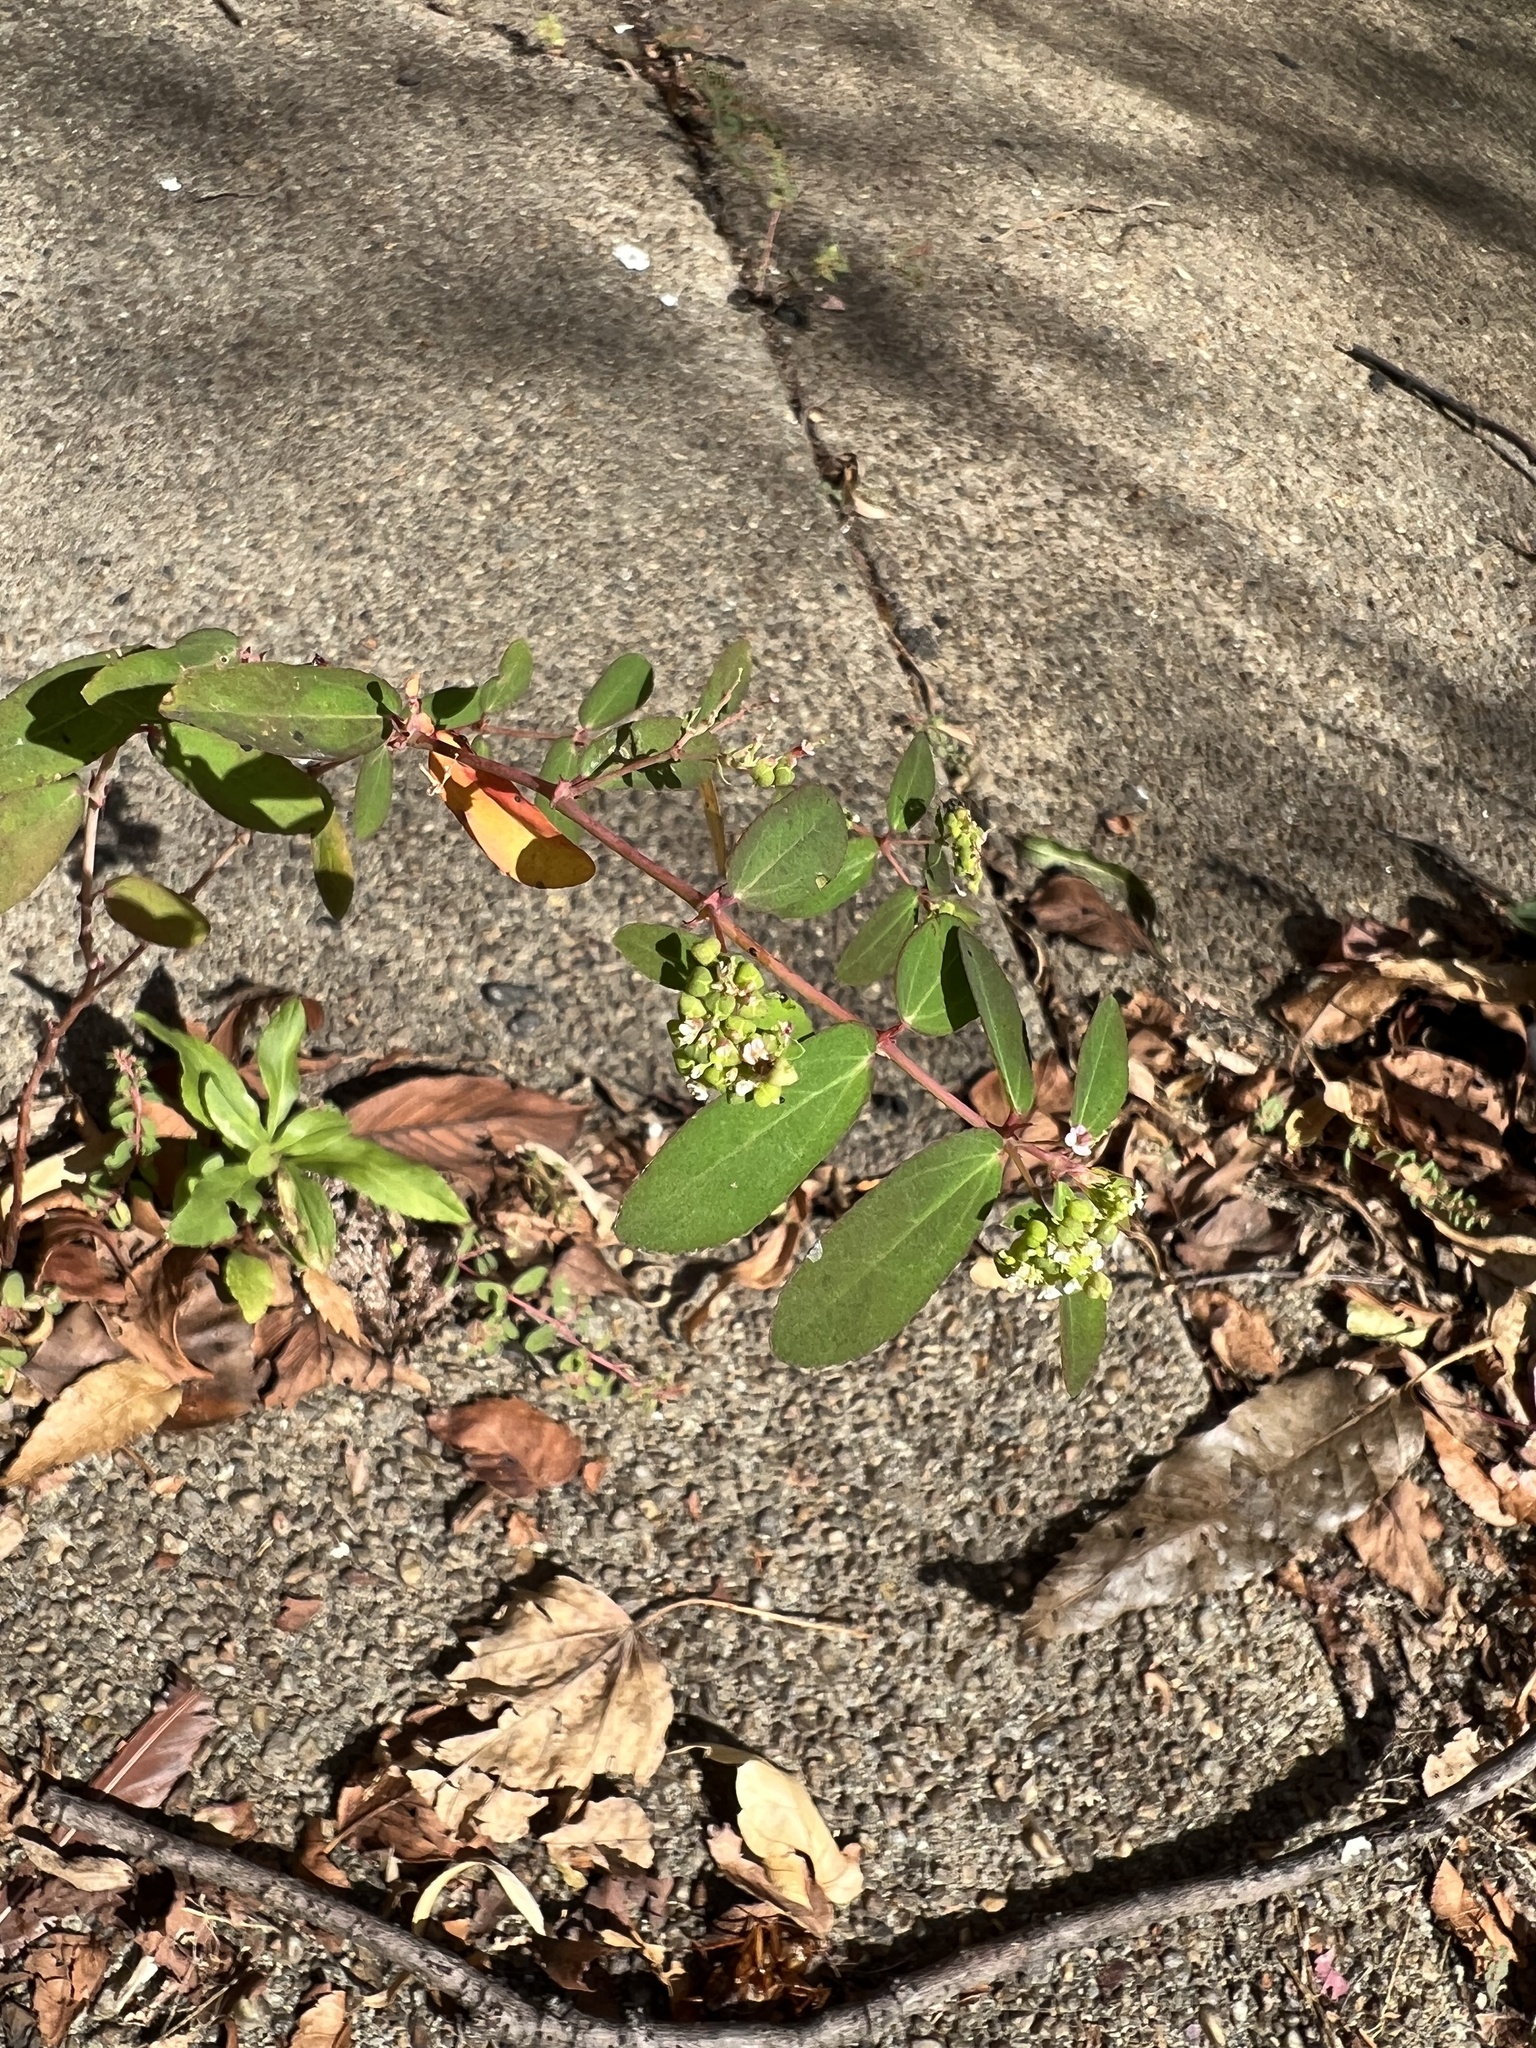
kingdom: Plantae
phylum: Tracheophyta
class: Magnoliopsida
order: Malpighiales
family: Euphorbiaceae
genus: Euphorbia
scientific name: Euphorbia hypericifolia
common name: Graceful sandmat
